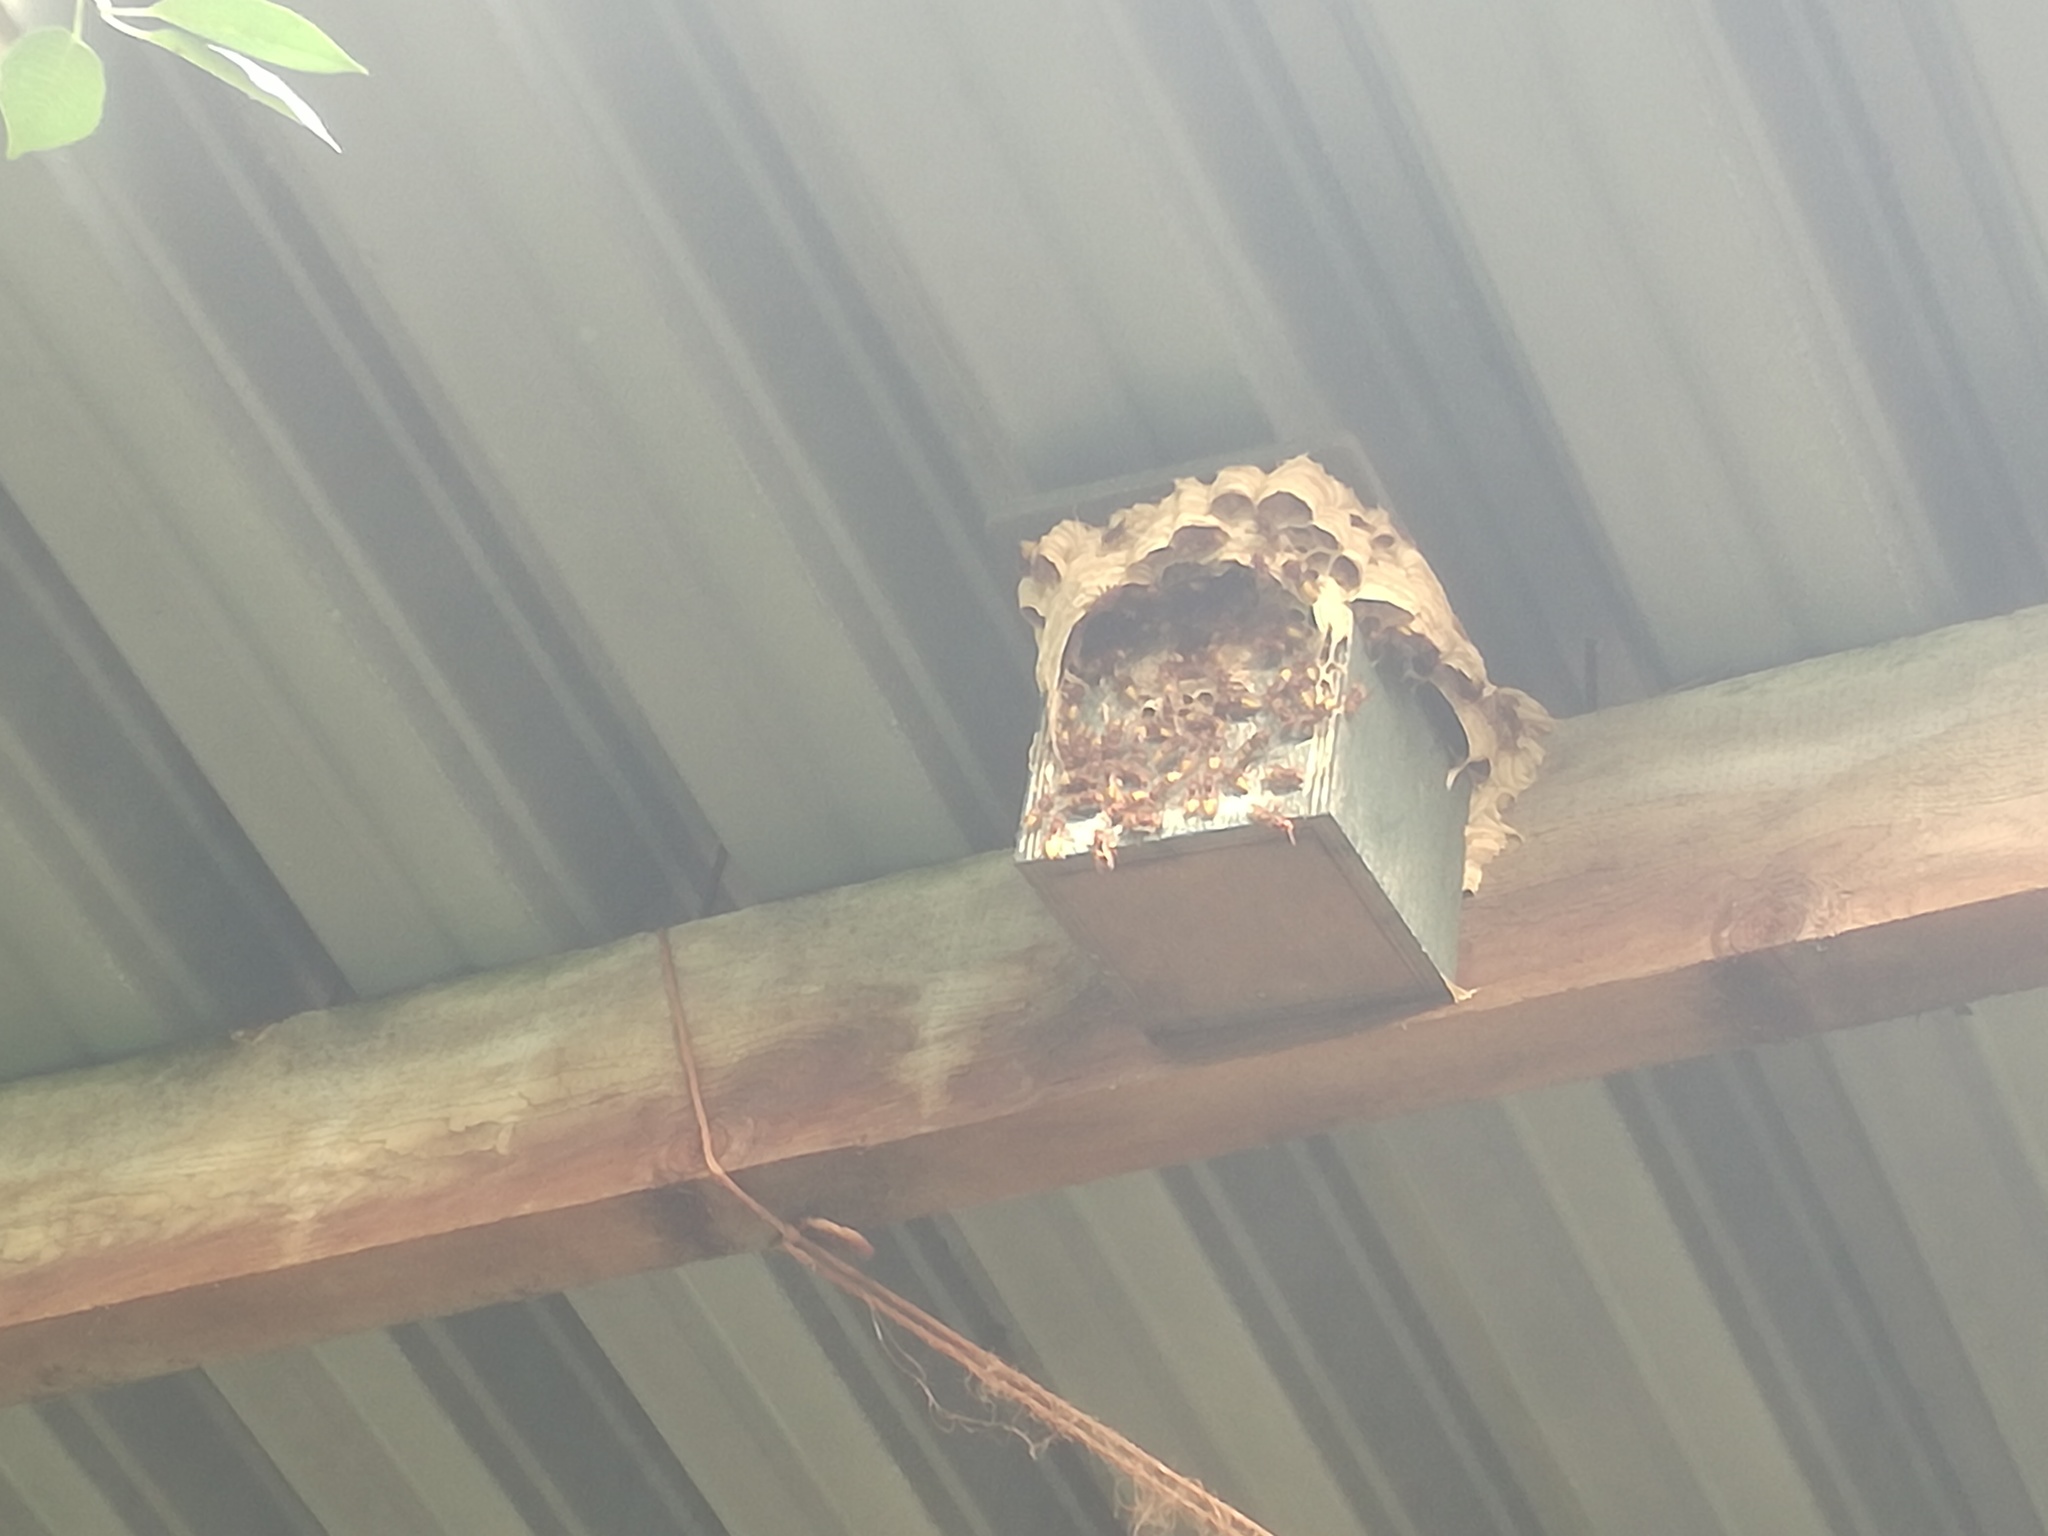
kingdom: Animalia
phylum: Arthropoda
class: Insecta
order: Hymenoptera
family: Vespidae
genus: Vespa
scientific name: Vespa crabro
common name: Hornet
